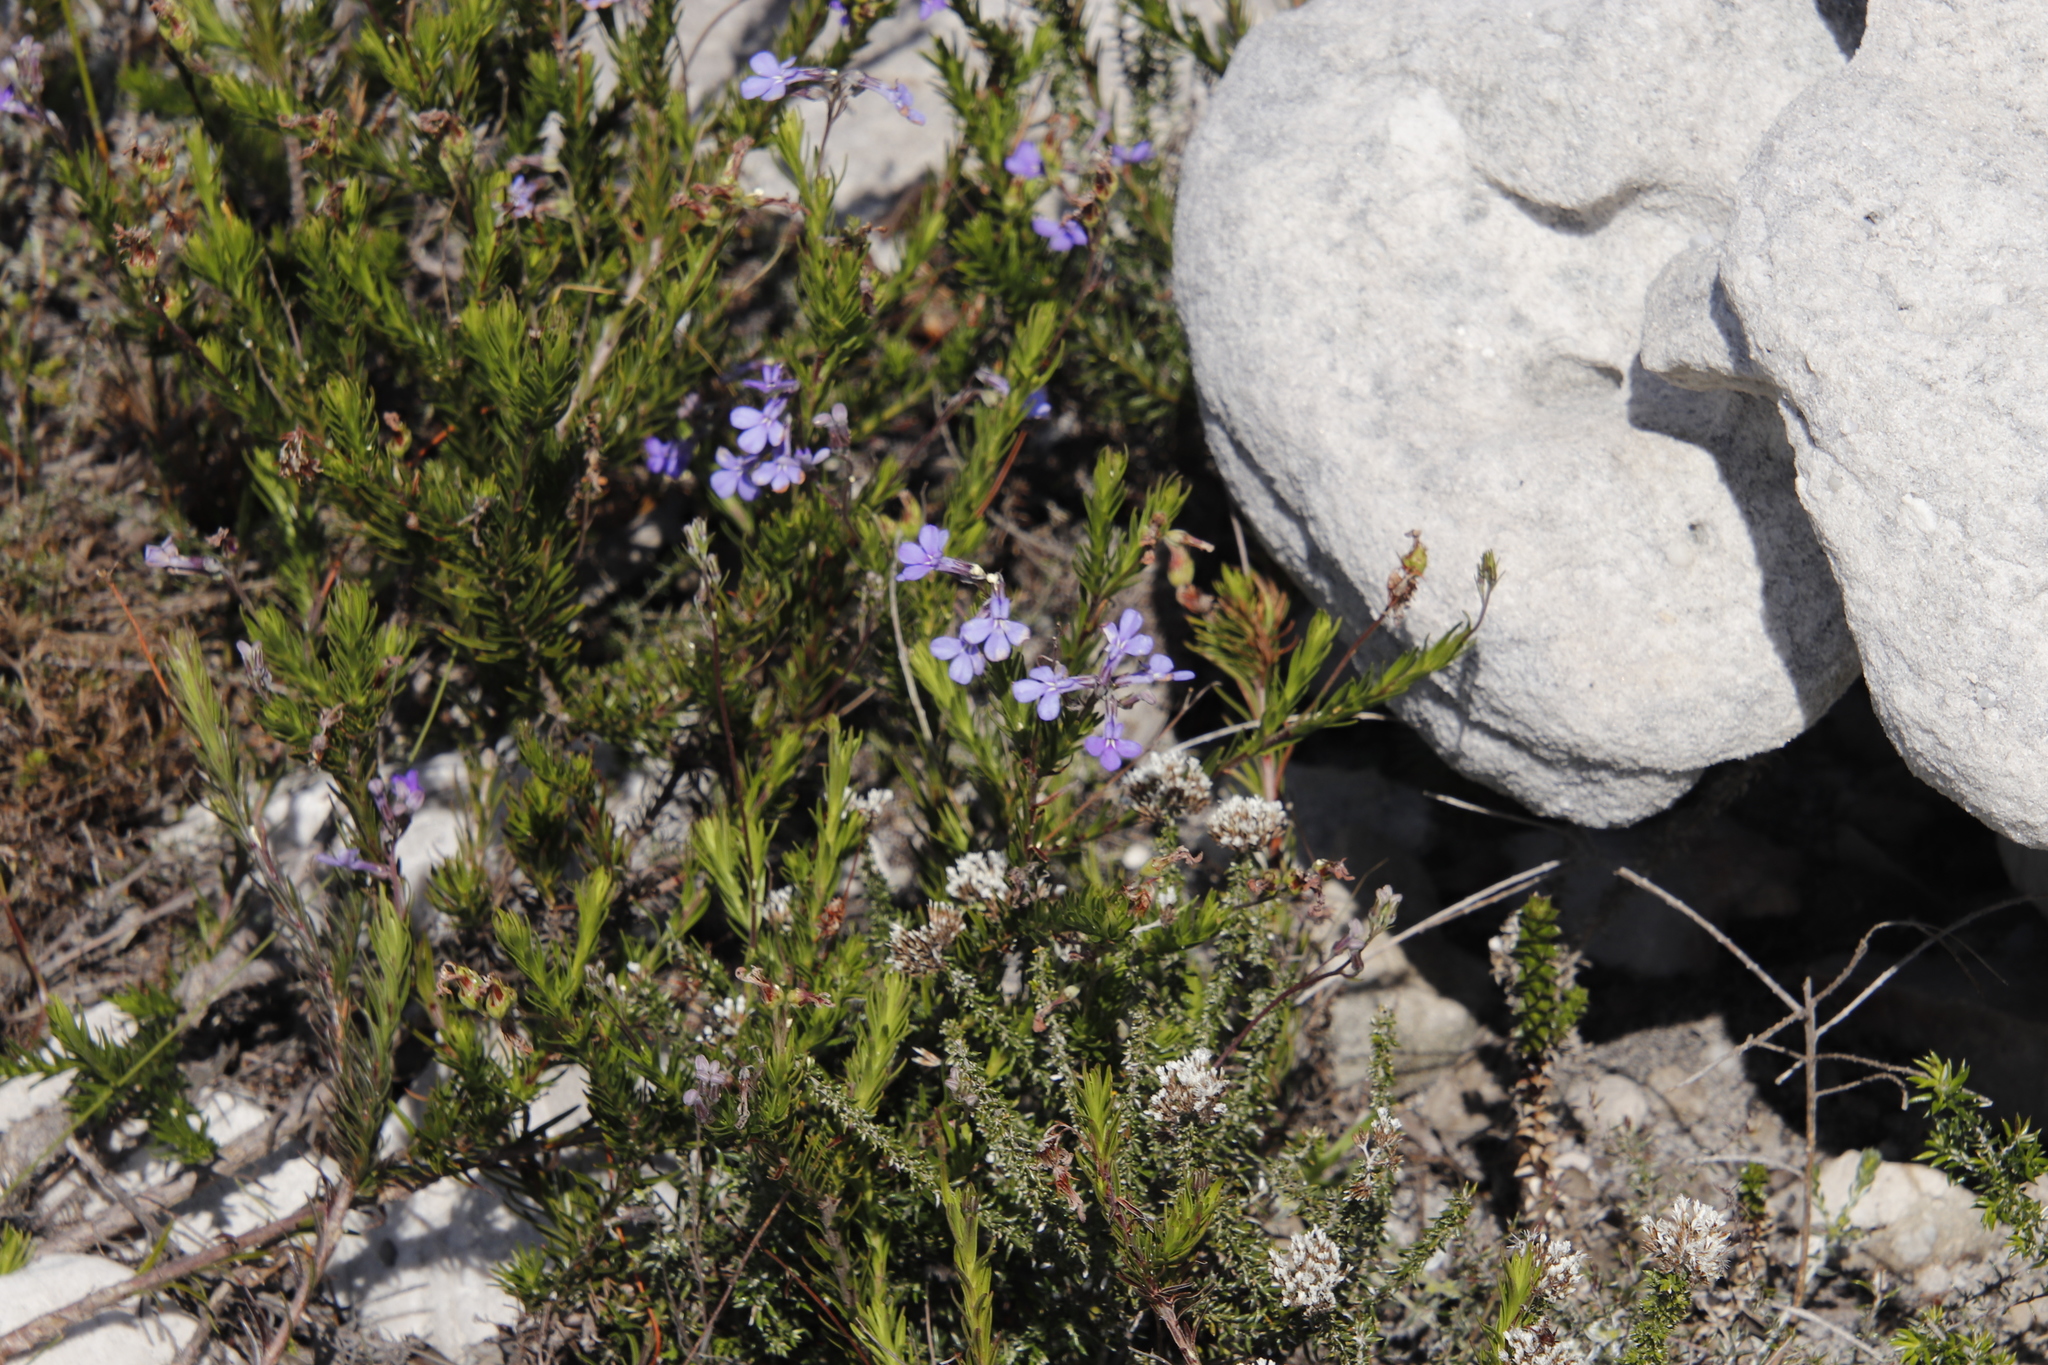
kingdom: Plantae
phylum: Tracheophyta
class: Magnoliopsida
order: Asterales
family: Campanulaceae
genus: Lobelia
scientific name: Lobelia pinifolia
